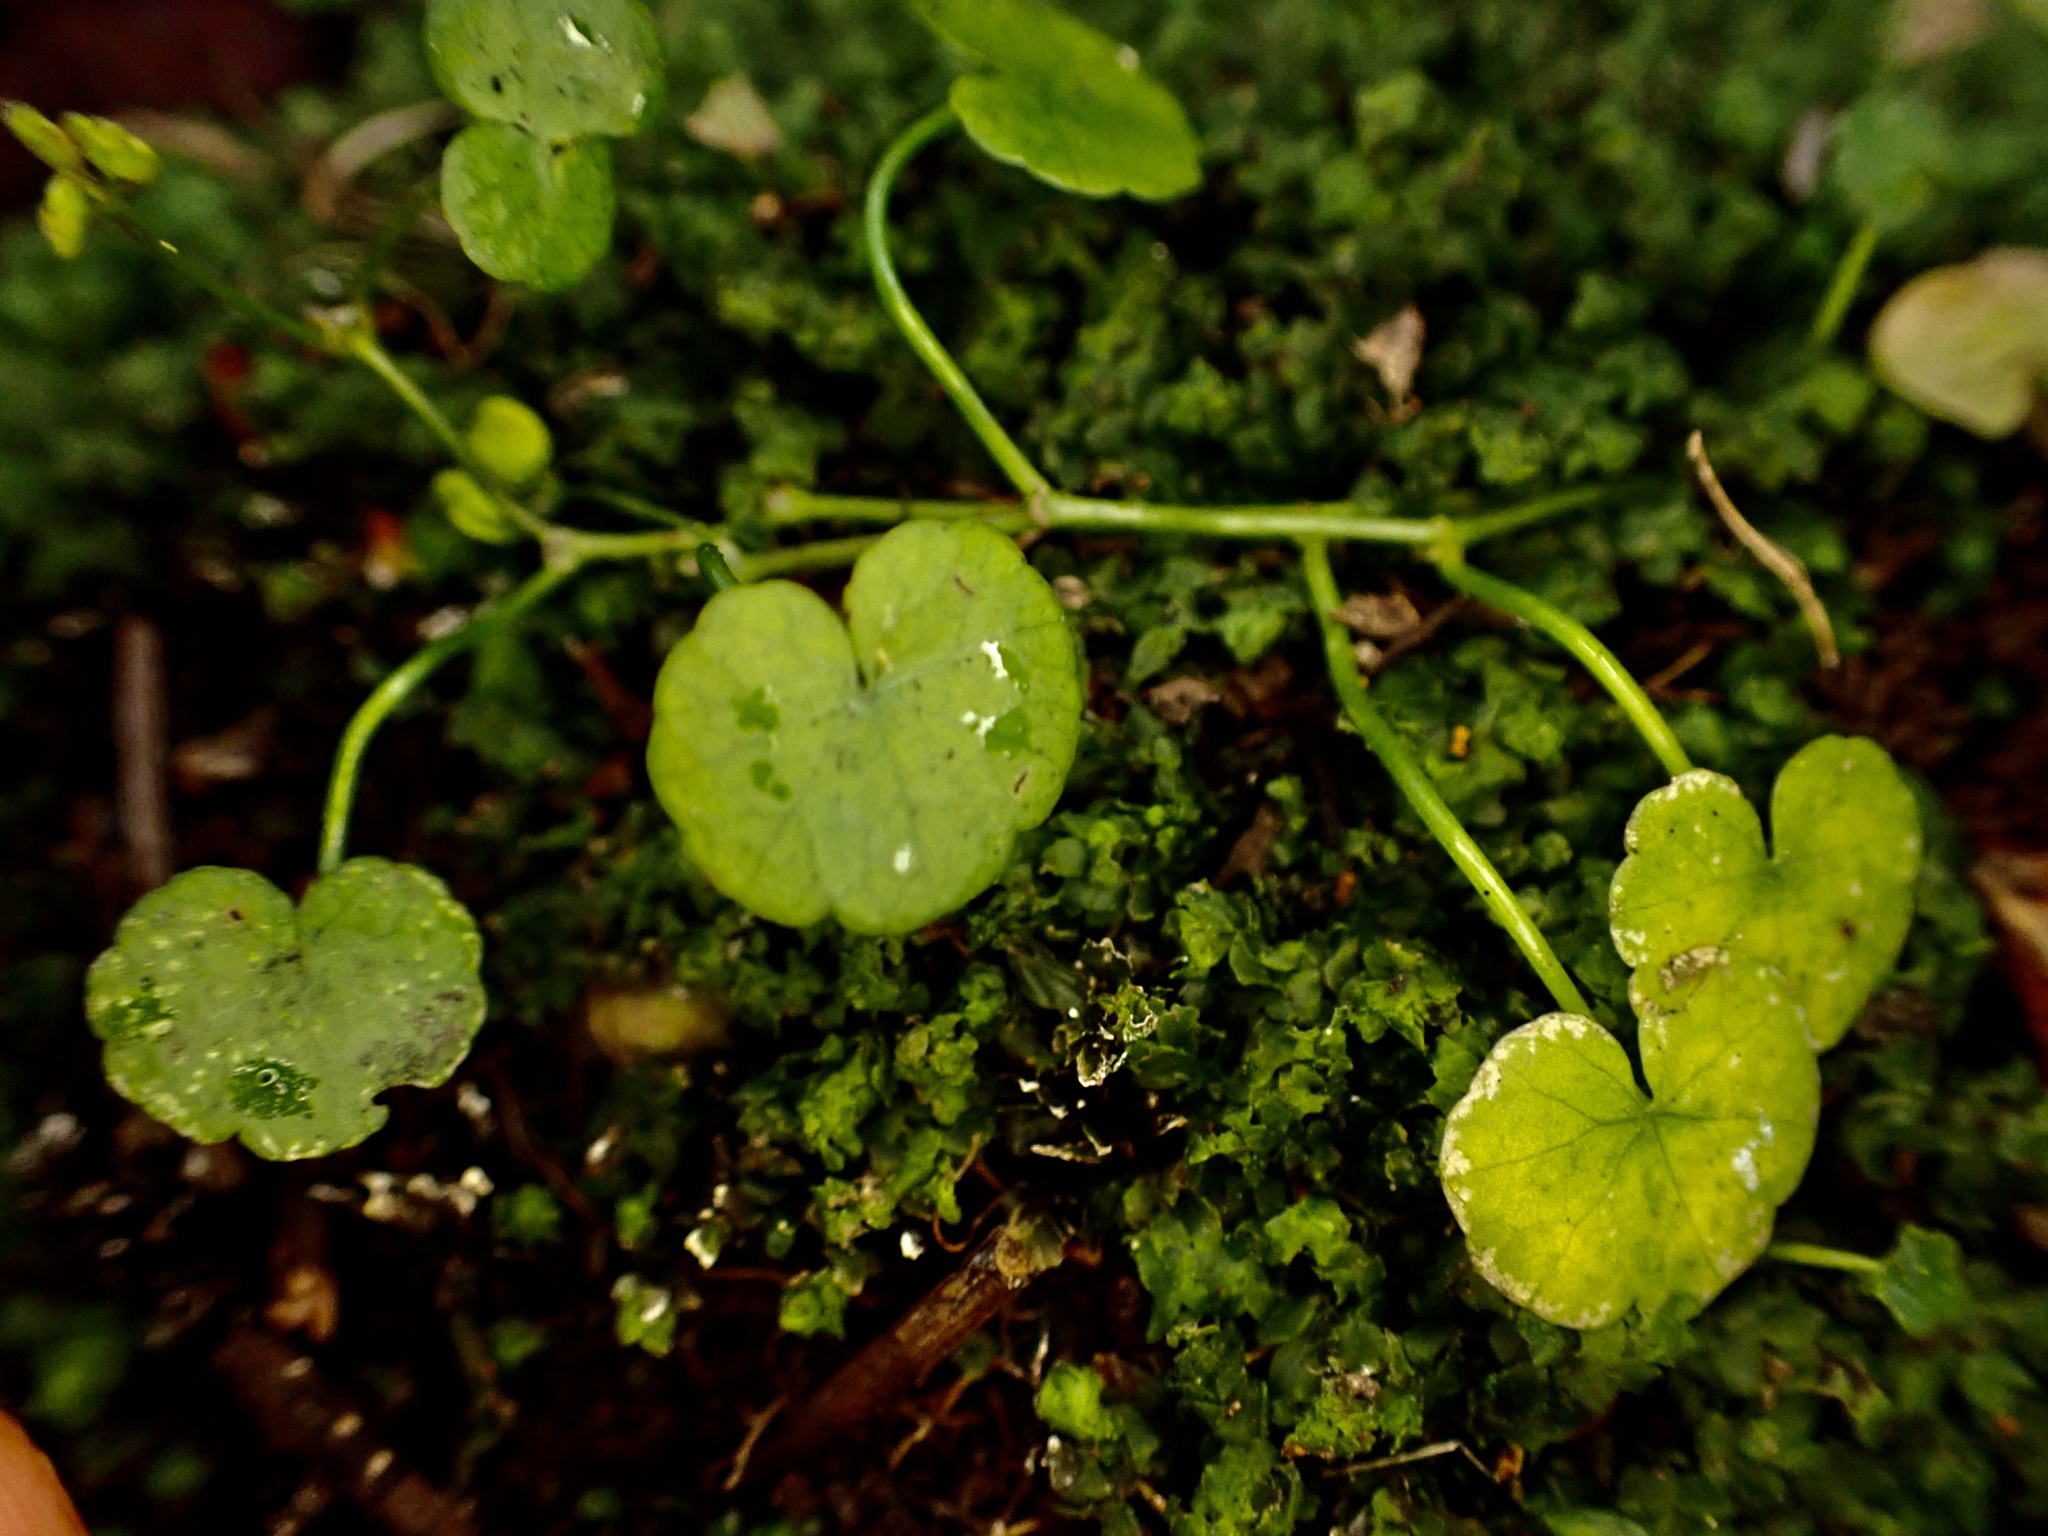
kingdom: Plantae
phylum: Tracheophyta
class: Magnoliopsida
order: Apiales
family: Araliaceae
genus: Hydrocotyle
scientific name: Hydrocotyle pterocarpa
